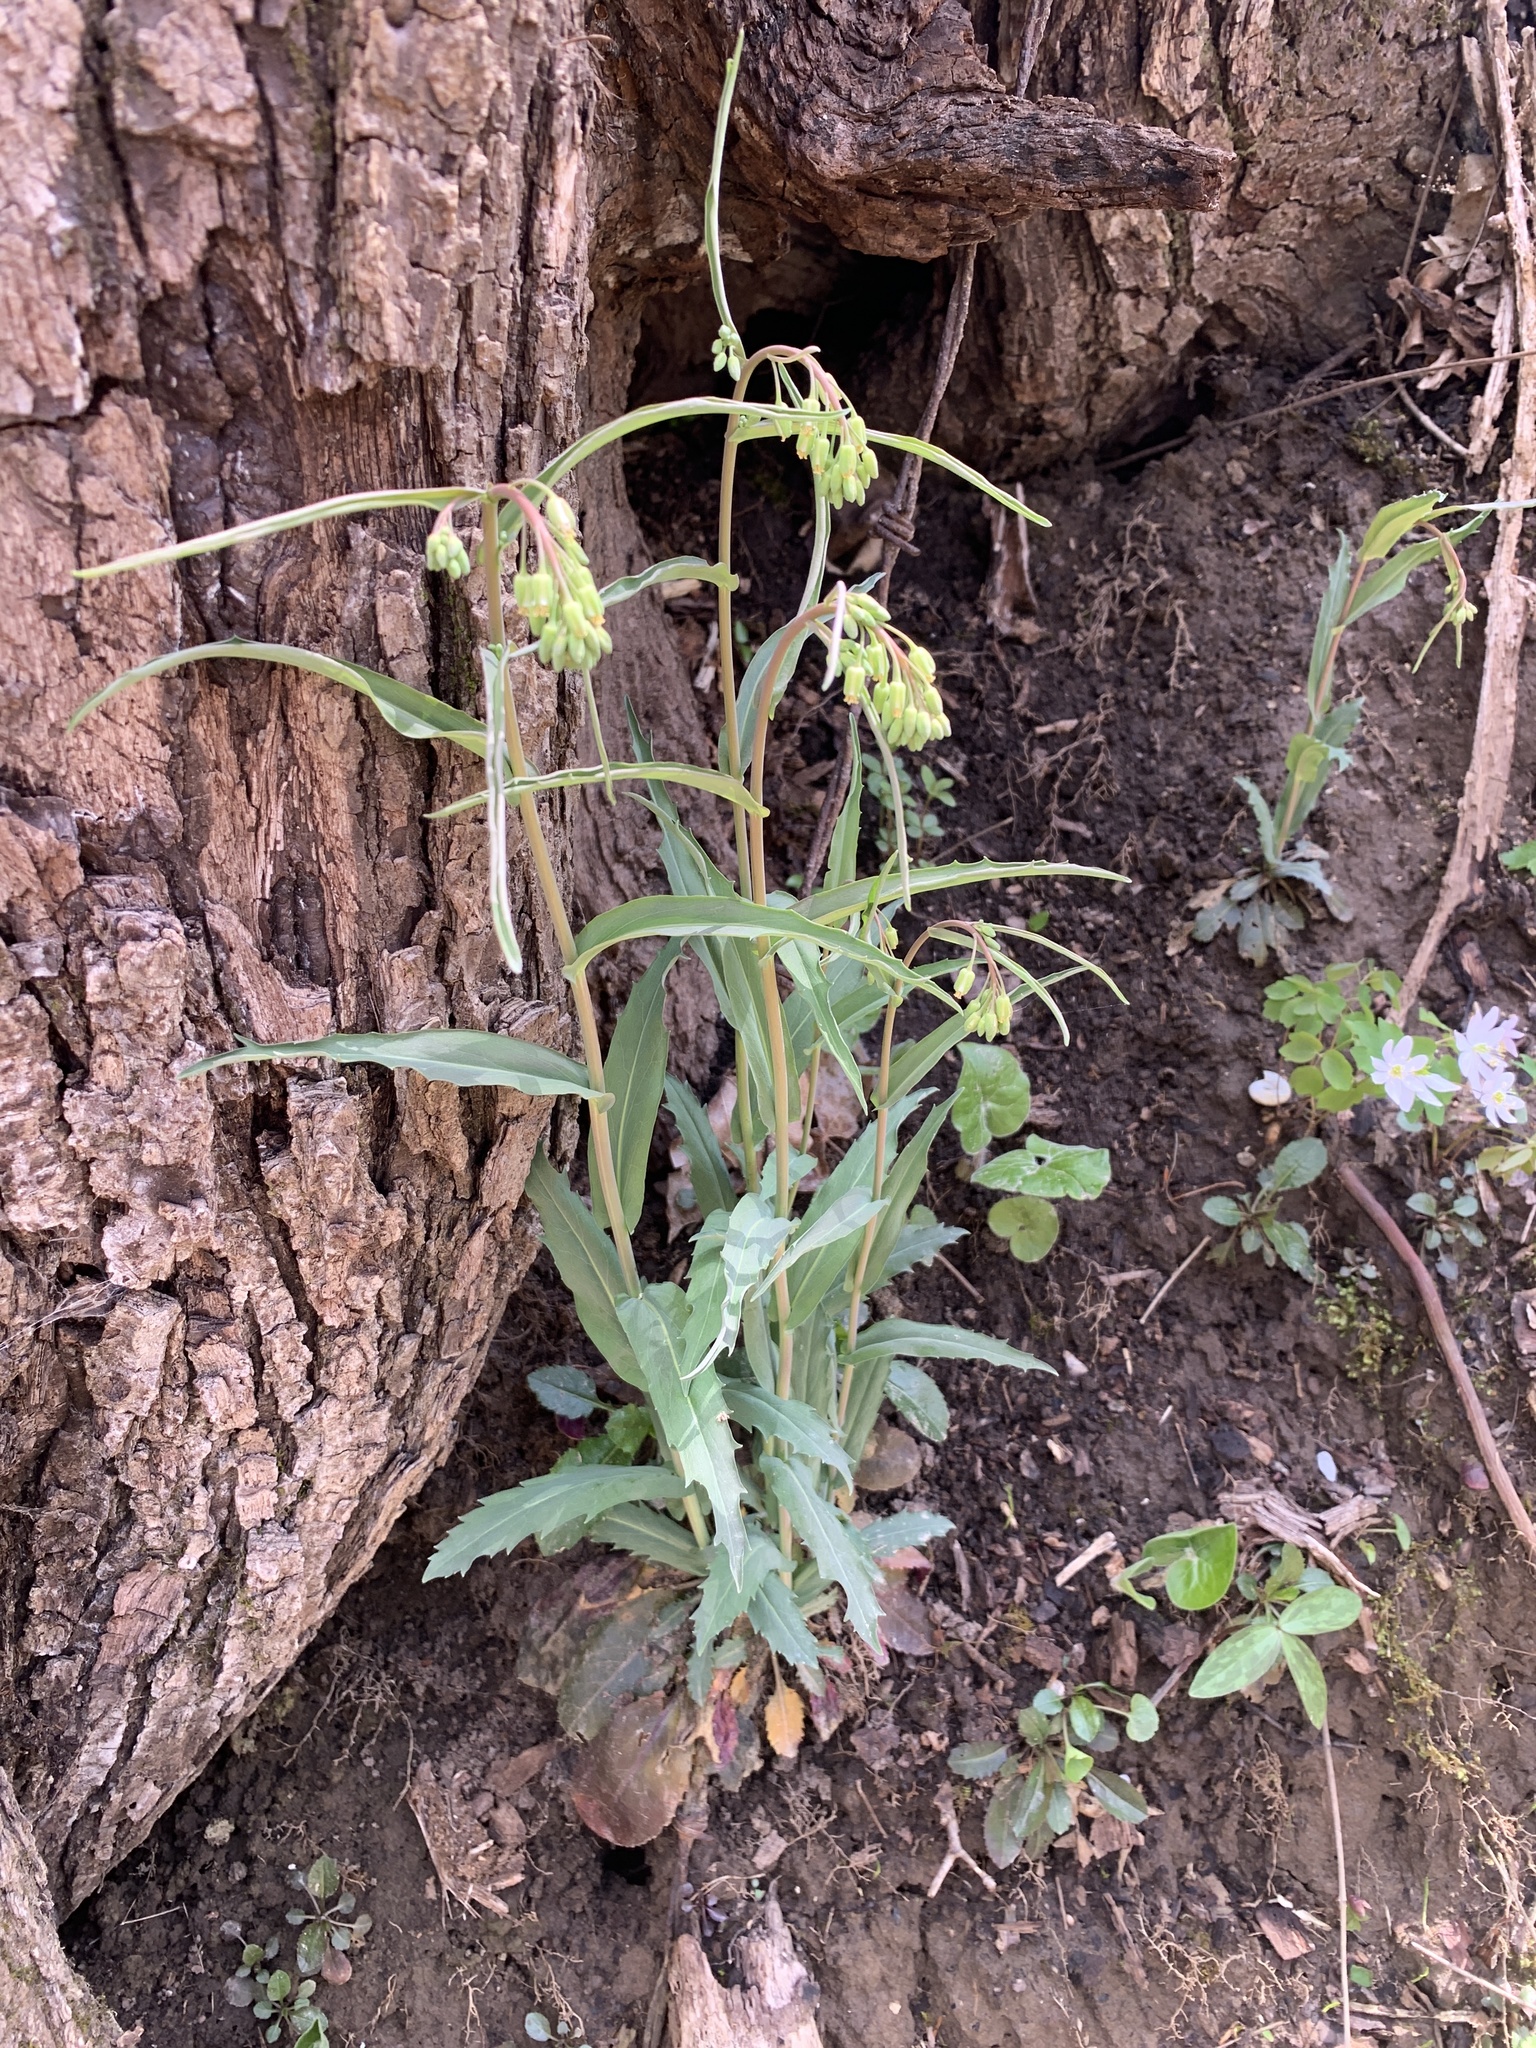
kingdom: Plantae
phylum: Tracheophyta
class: Magnoliopsida
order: Brassicales
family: Brassicaceae
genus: Borodinia
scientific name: Borodinia laevigata
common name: Smooth rockcress
